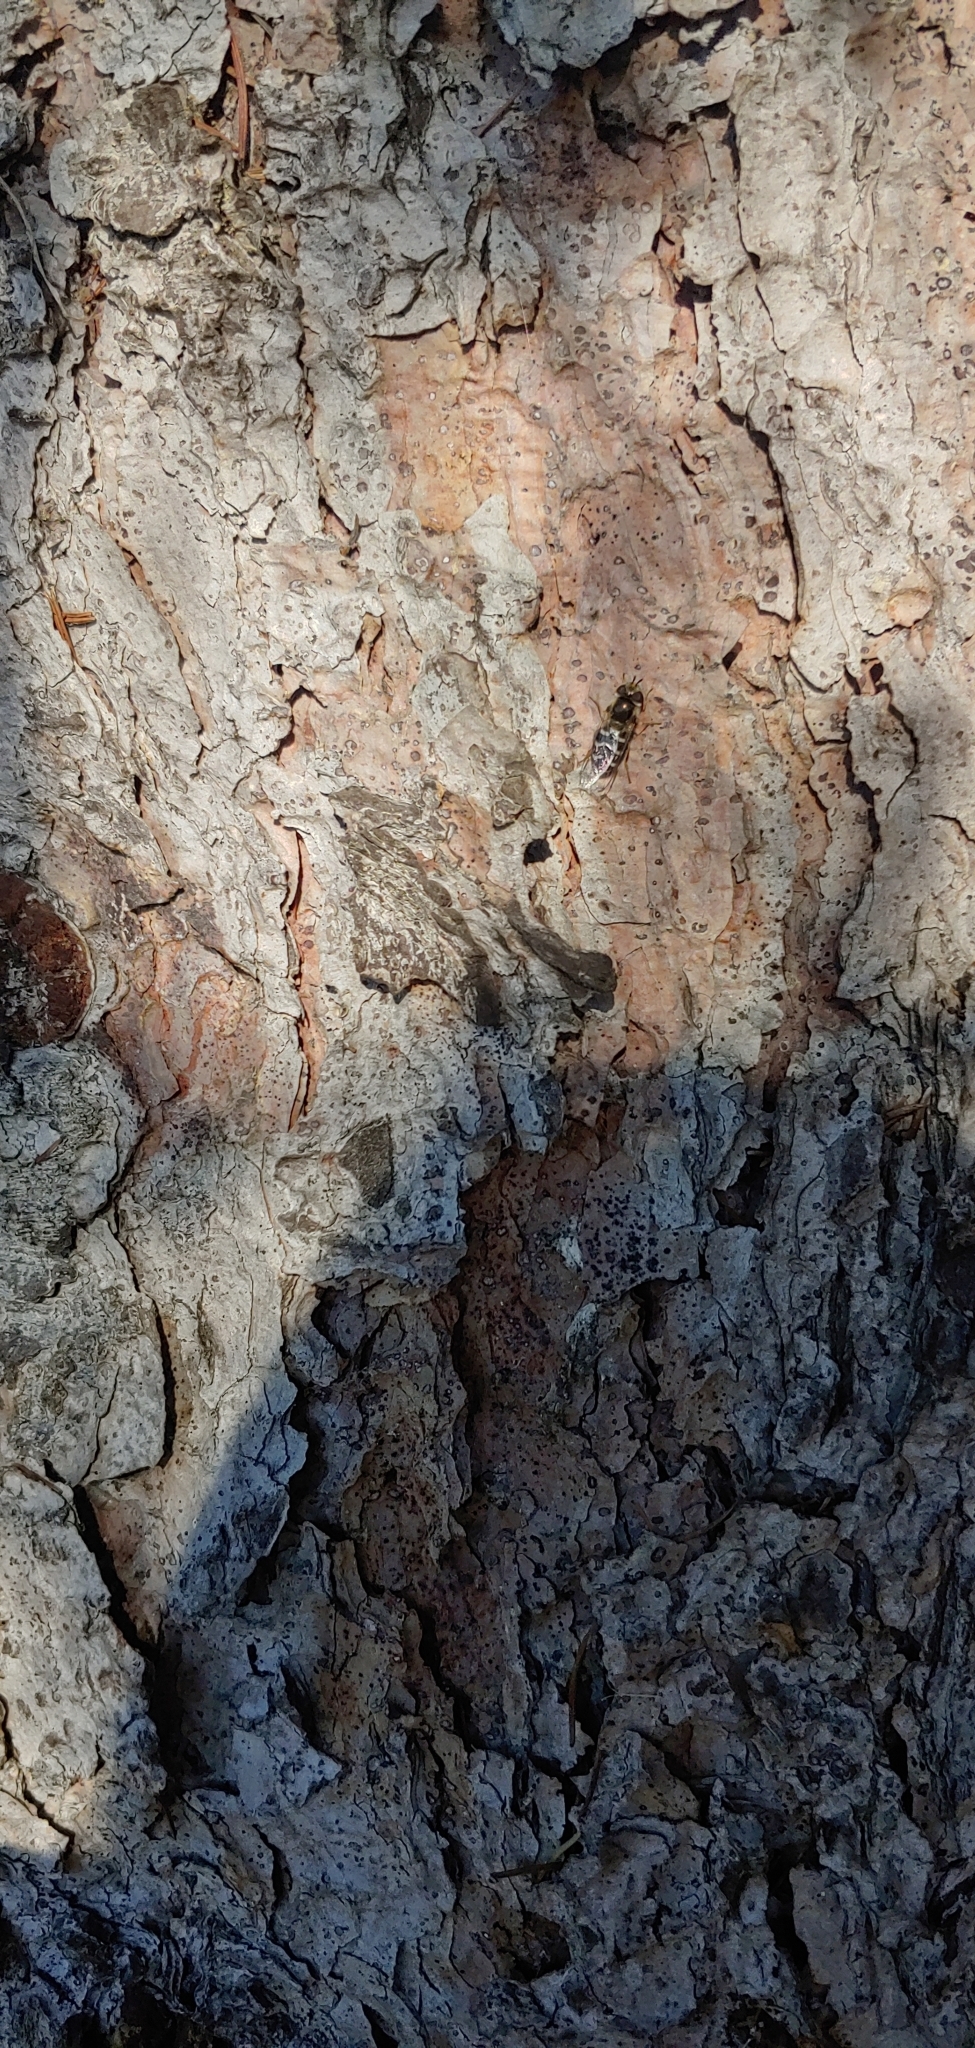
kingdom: Animalia
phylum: Arthropoda
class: Insecta
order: Diptera
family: Syrphidae
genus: Scaeva
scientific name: Scaeva affinis
